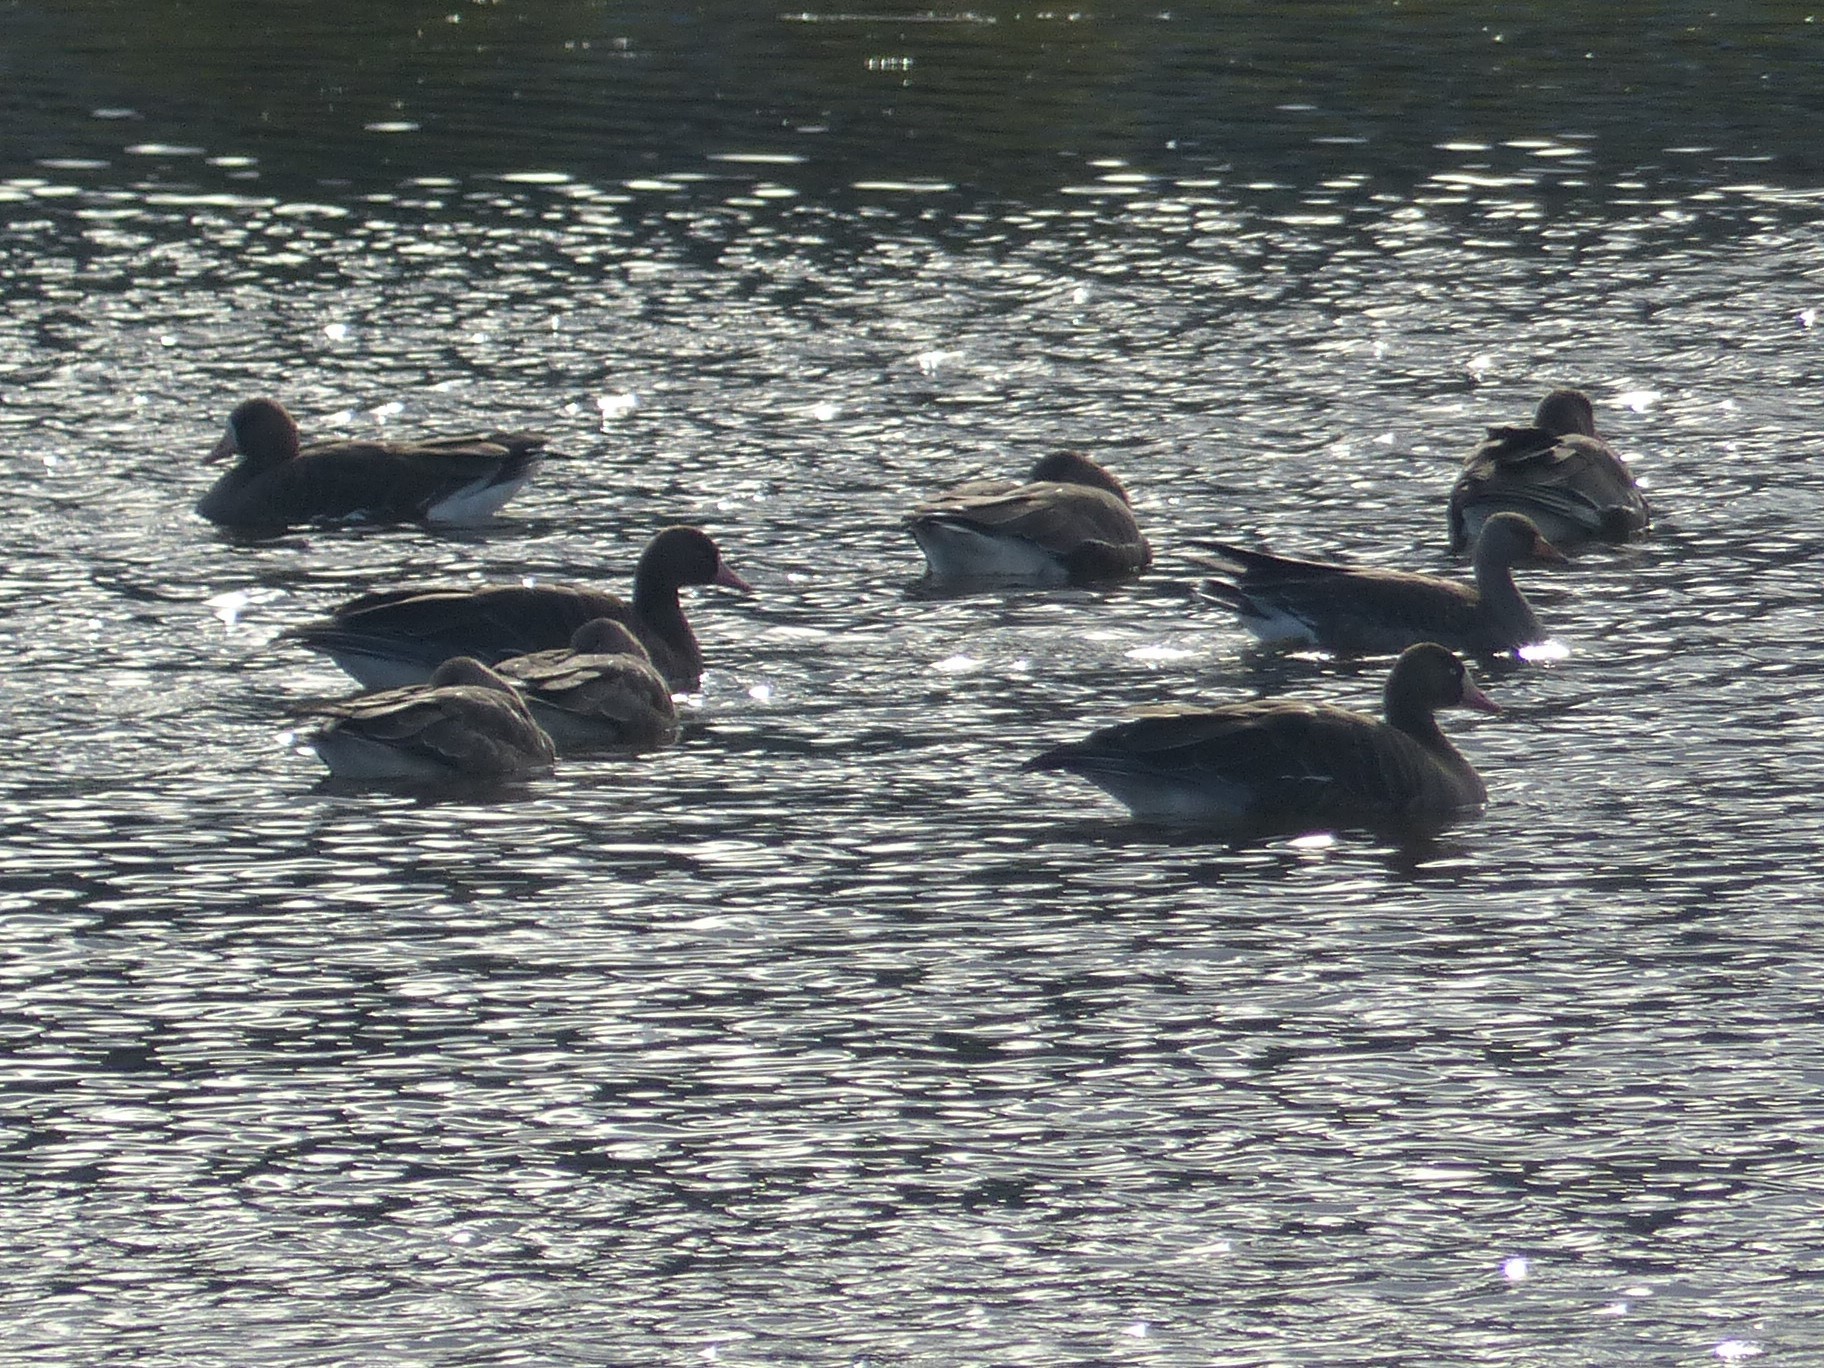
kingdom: Animalia
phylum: Chordata
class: Aves
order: Anseriformes
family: Anatidae
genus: Anser
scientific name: Anser albifrons
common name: Greater white-fronted goose
